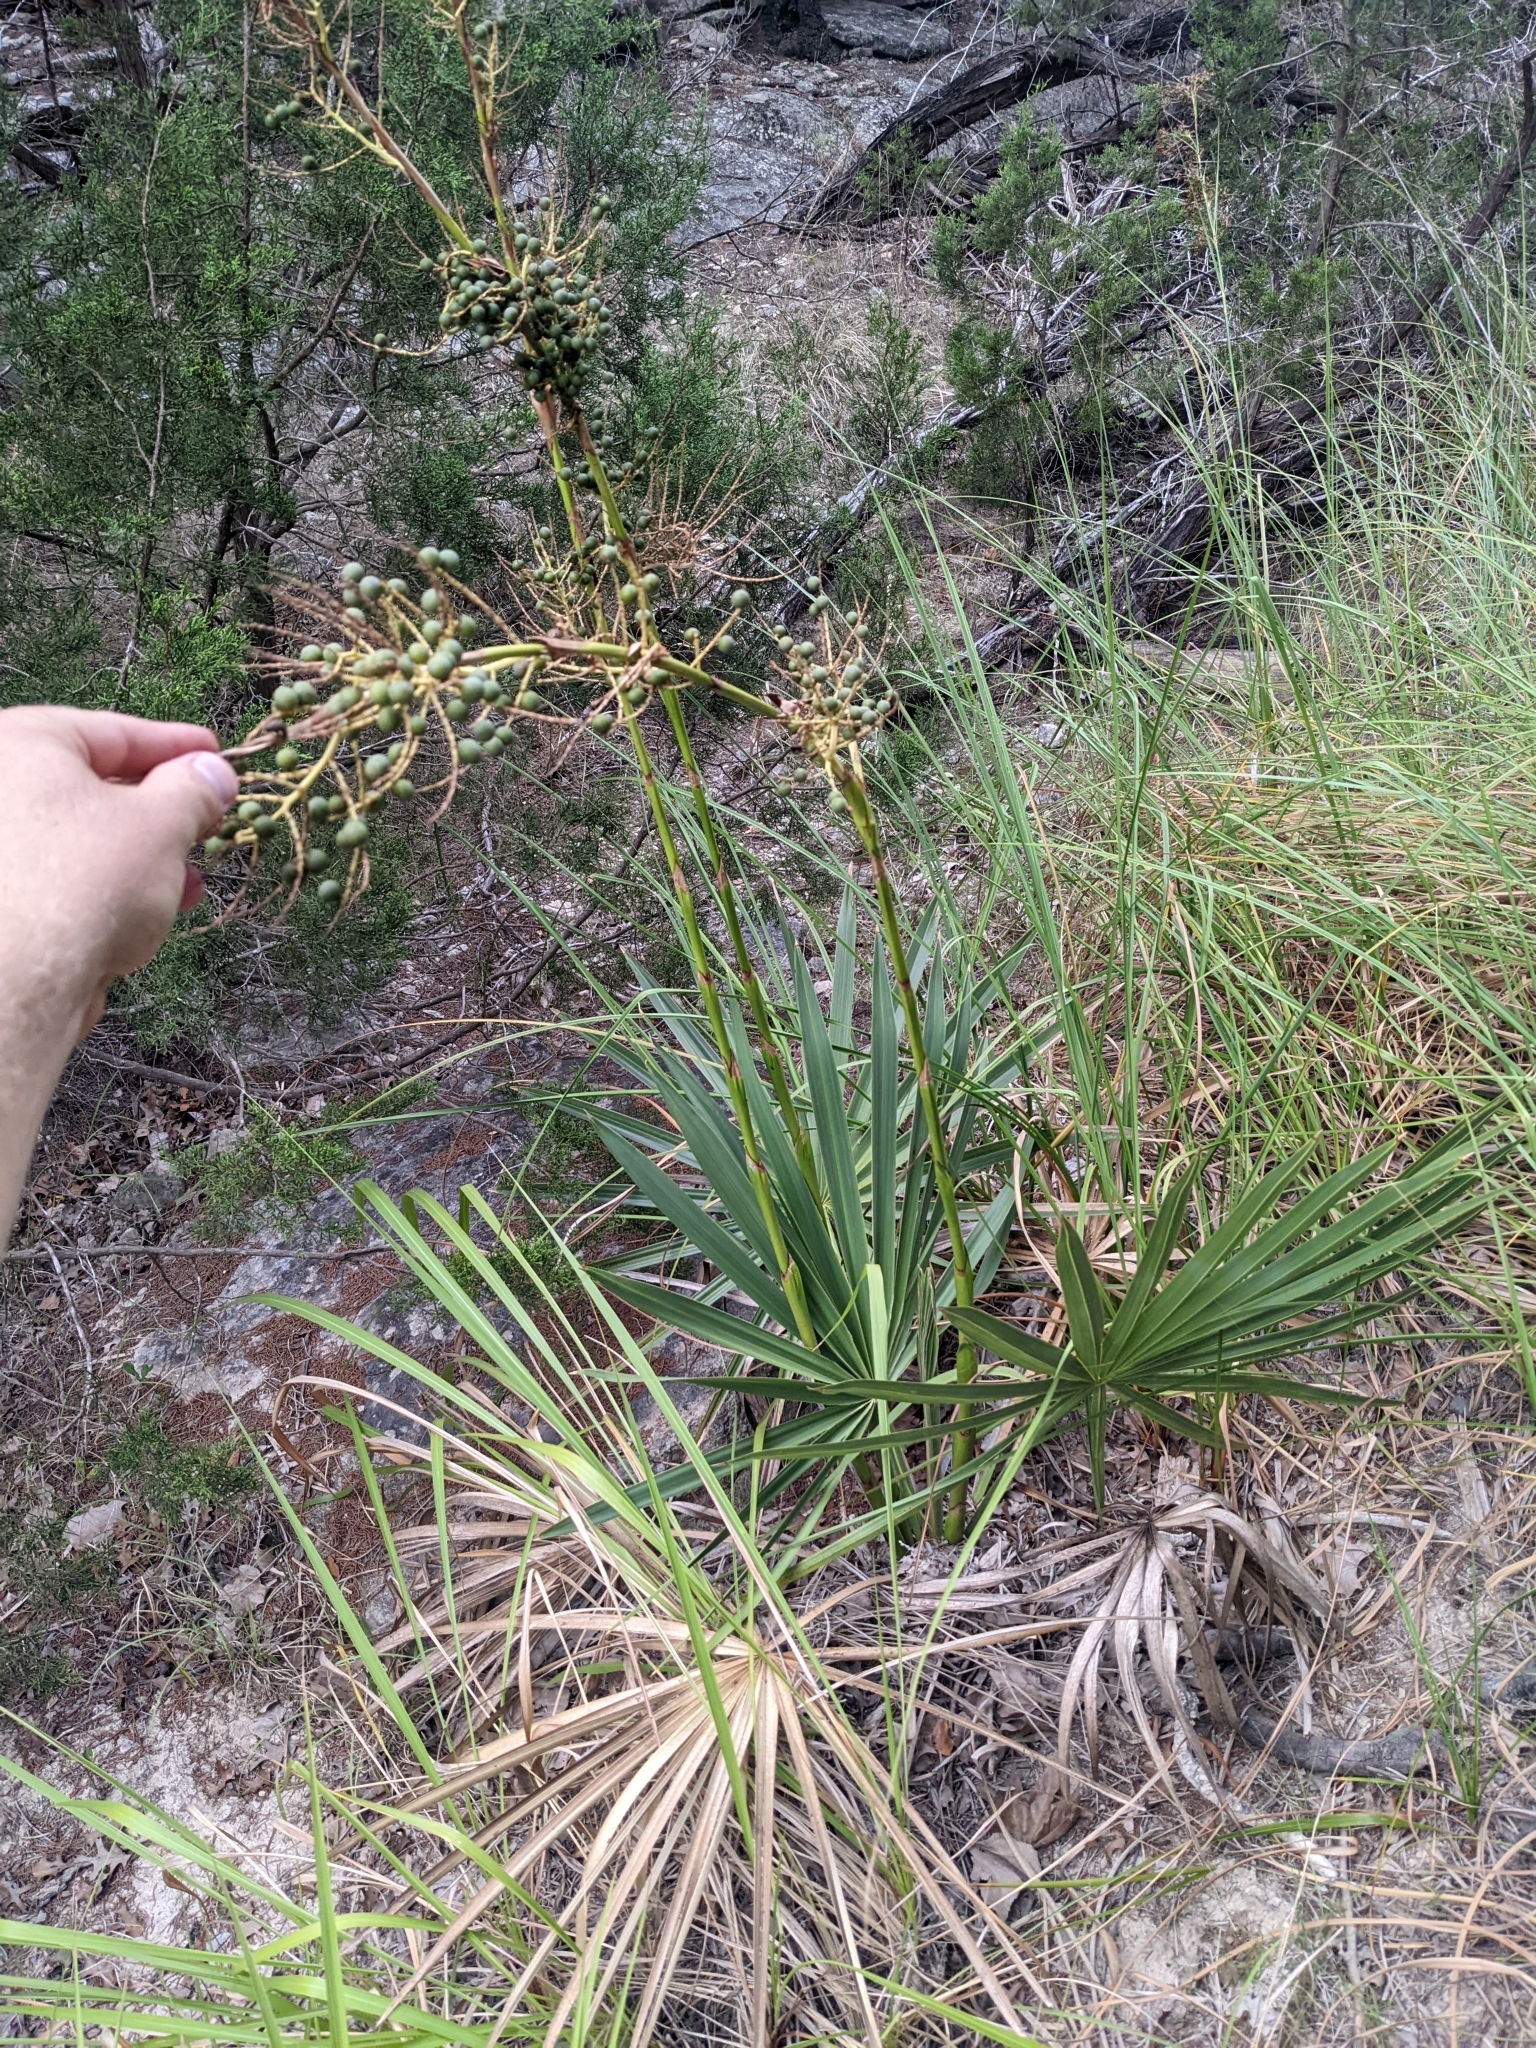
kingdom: Plantae
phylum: Tracheophyta
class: Liliopsida
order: Arecales
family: Arecaceae
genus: Sabal
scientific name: Sabal minor
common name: Dwarf palmetto
